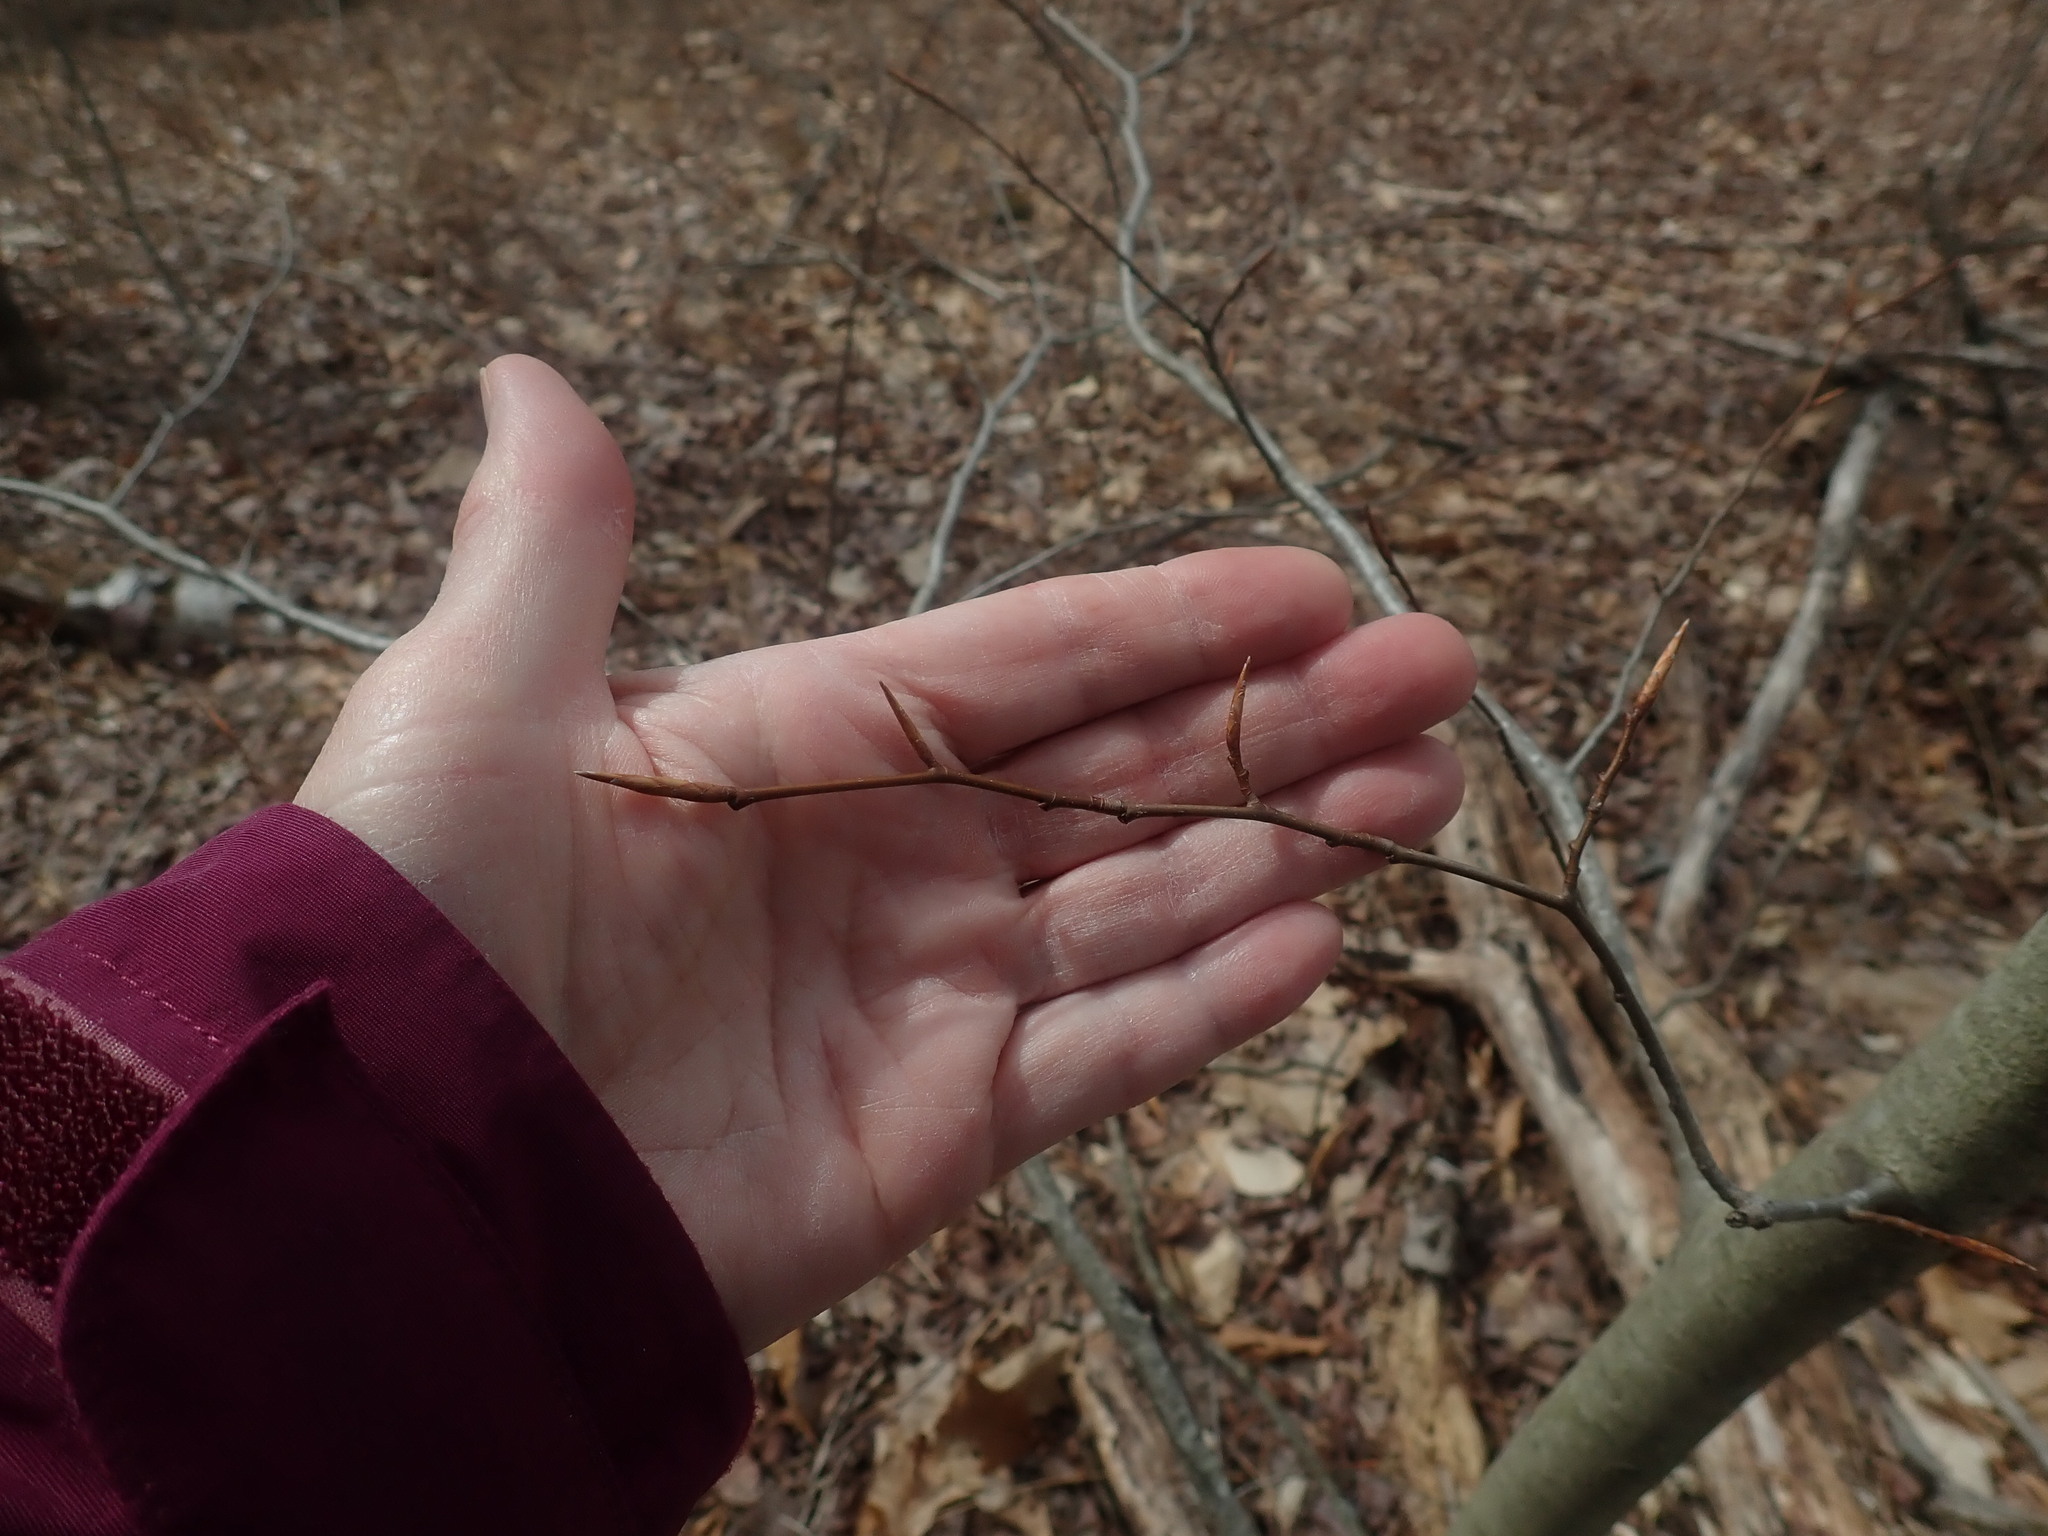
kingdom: Plantae
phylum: Tracheophyta
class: Magnoliopsida
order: Fagales
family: Fagaceae
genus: Fagus
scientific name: Fagus grandifolia
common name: American beech
